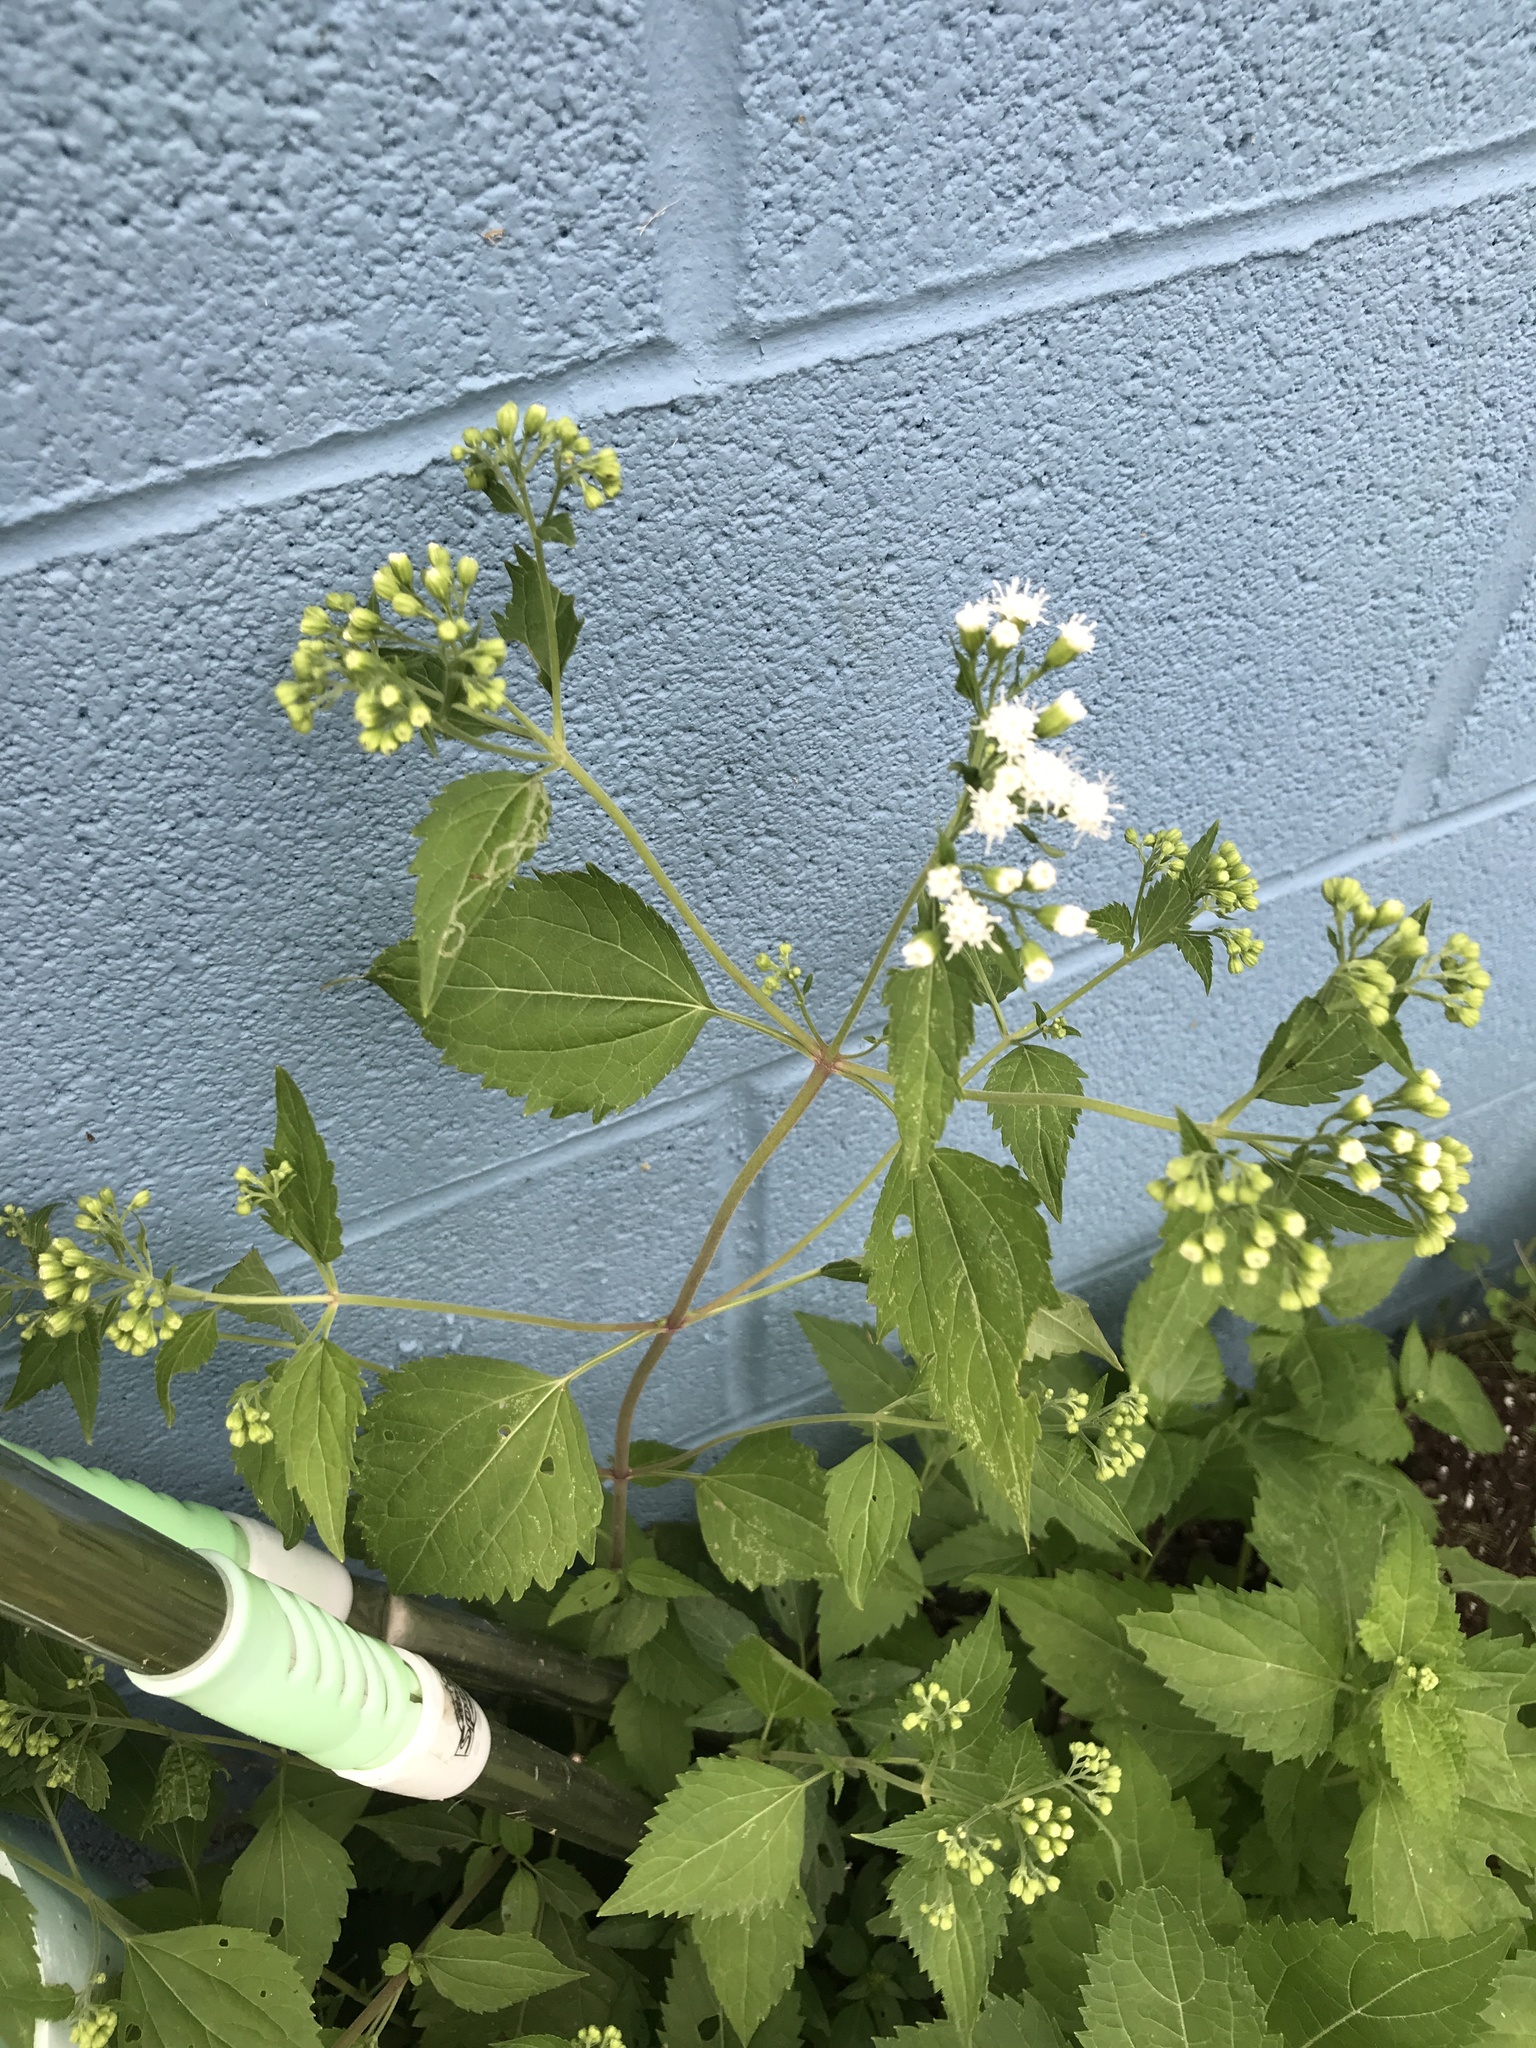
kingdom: Plantae
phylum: Tracheophyta
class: Magnoliopsida
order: Asterales
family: Asteraceae
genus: Ageratina
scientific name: Ageratina altissima
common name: White snakeroot
